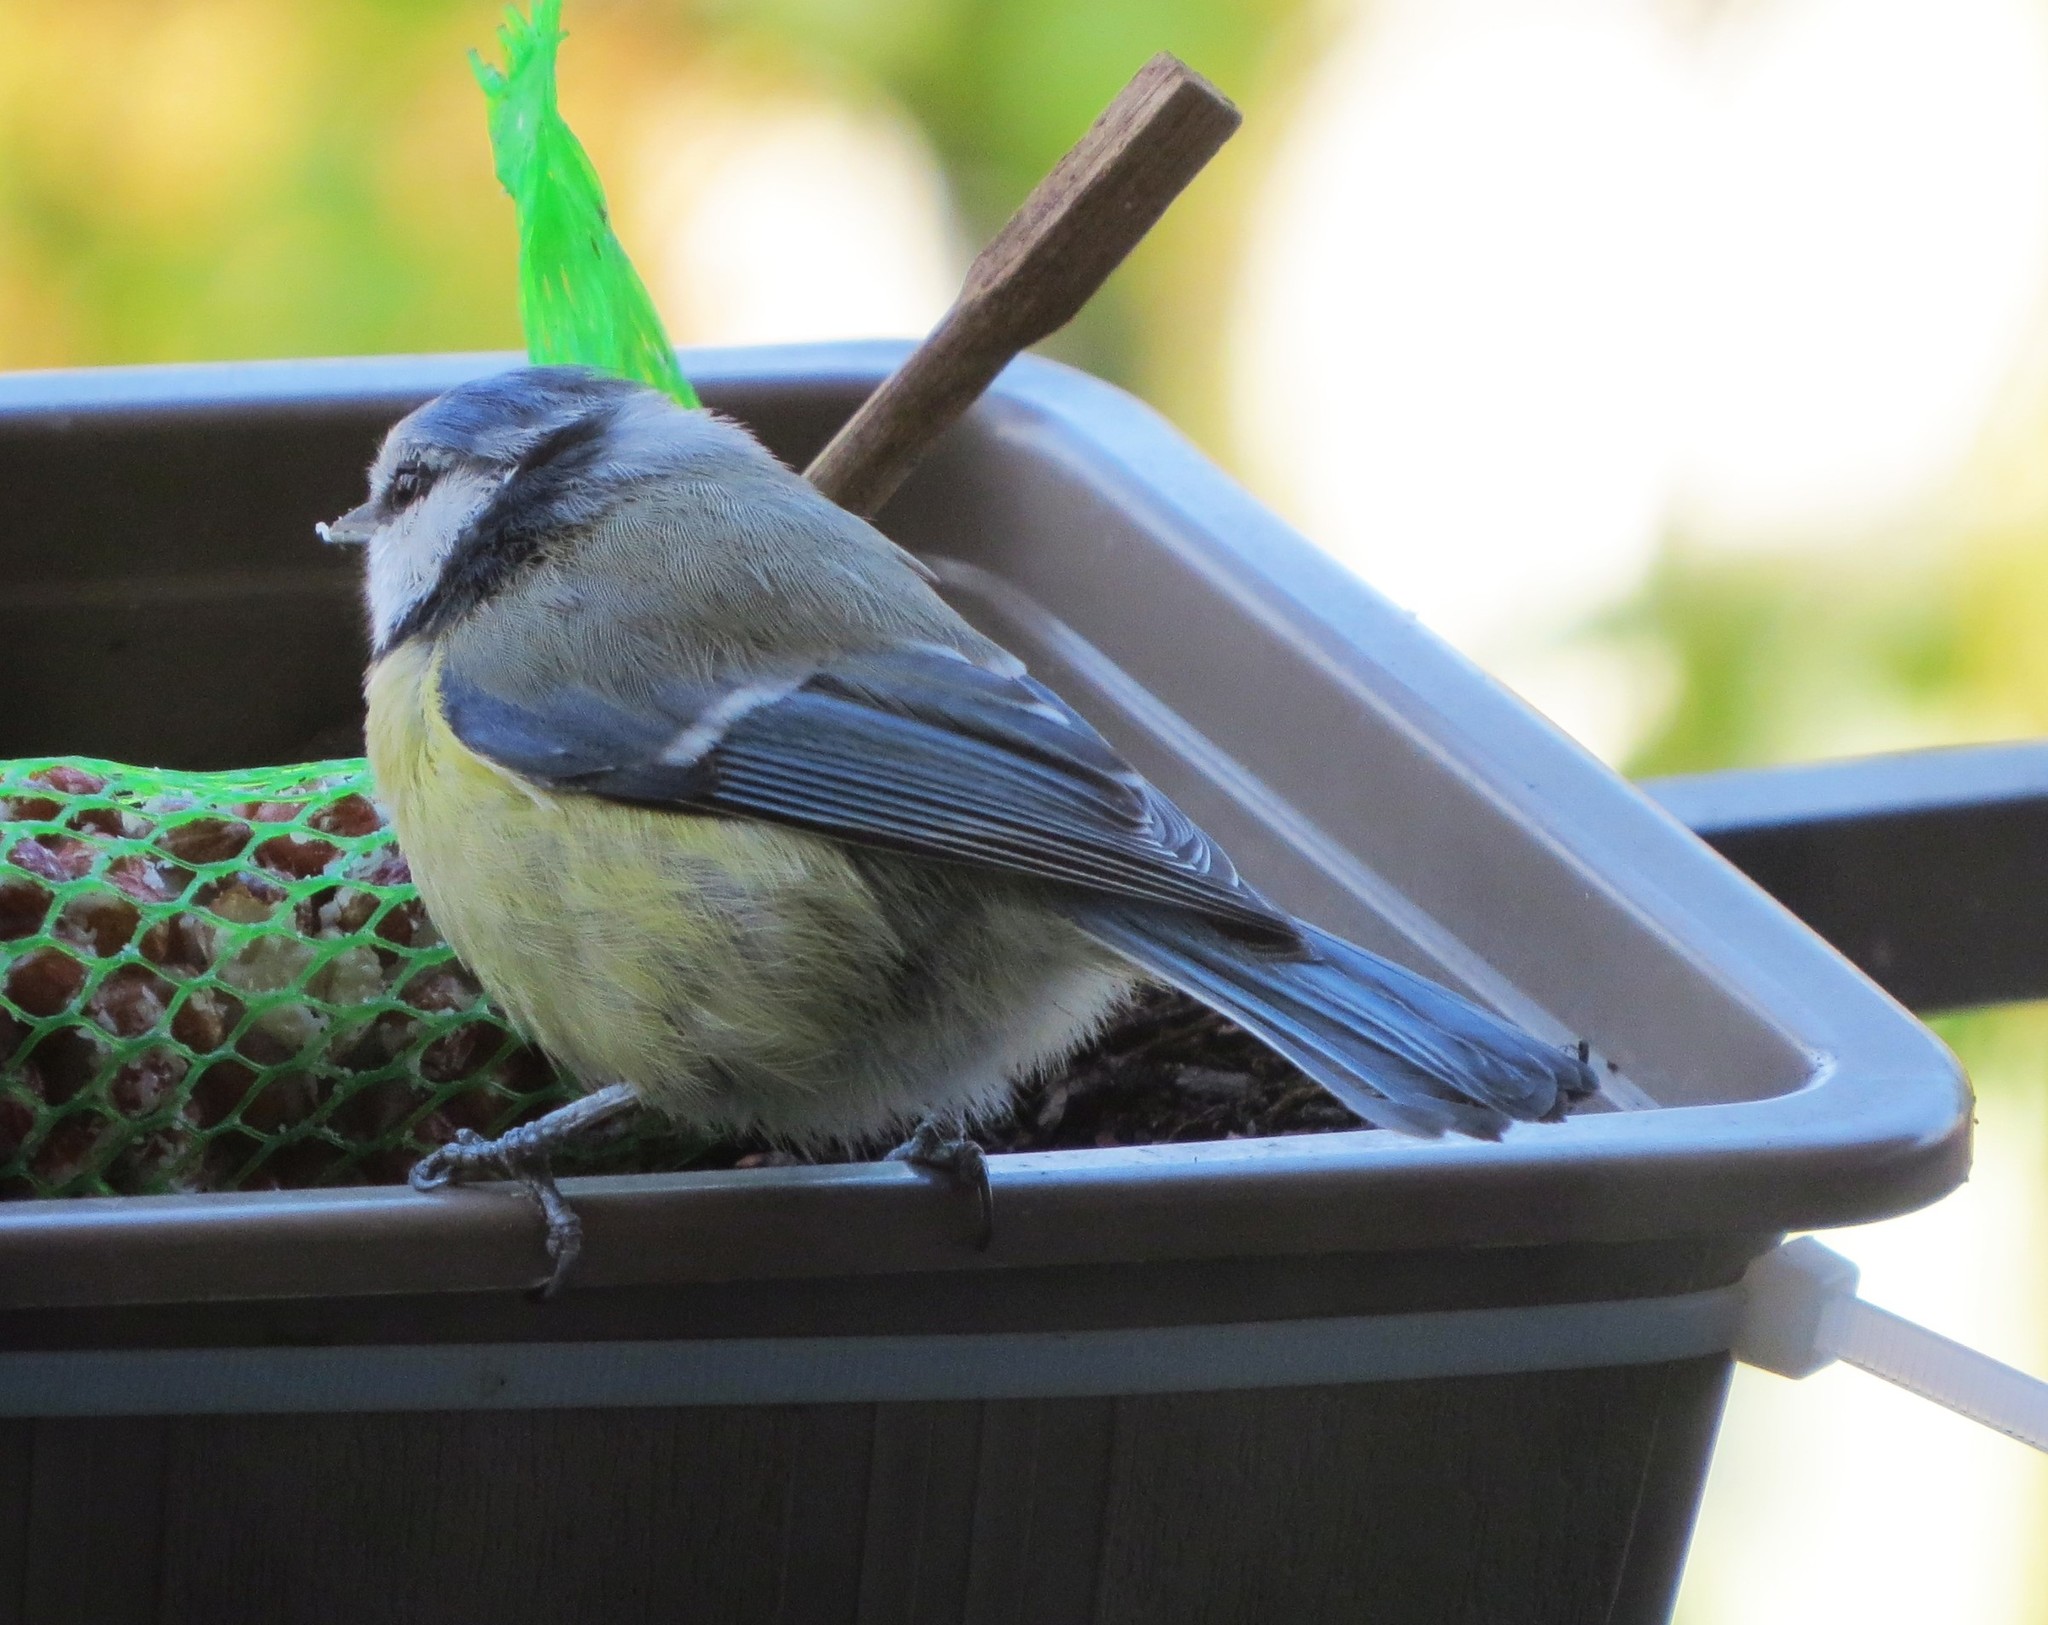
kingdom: Animalia
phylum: Chordata
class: Aves
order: Passeriformes
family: Paridae
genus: Cyanistes
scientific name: Cyanistes caeruleus
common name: Eurasian blue tit
